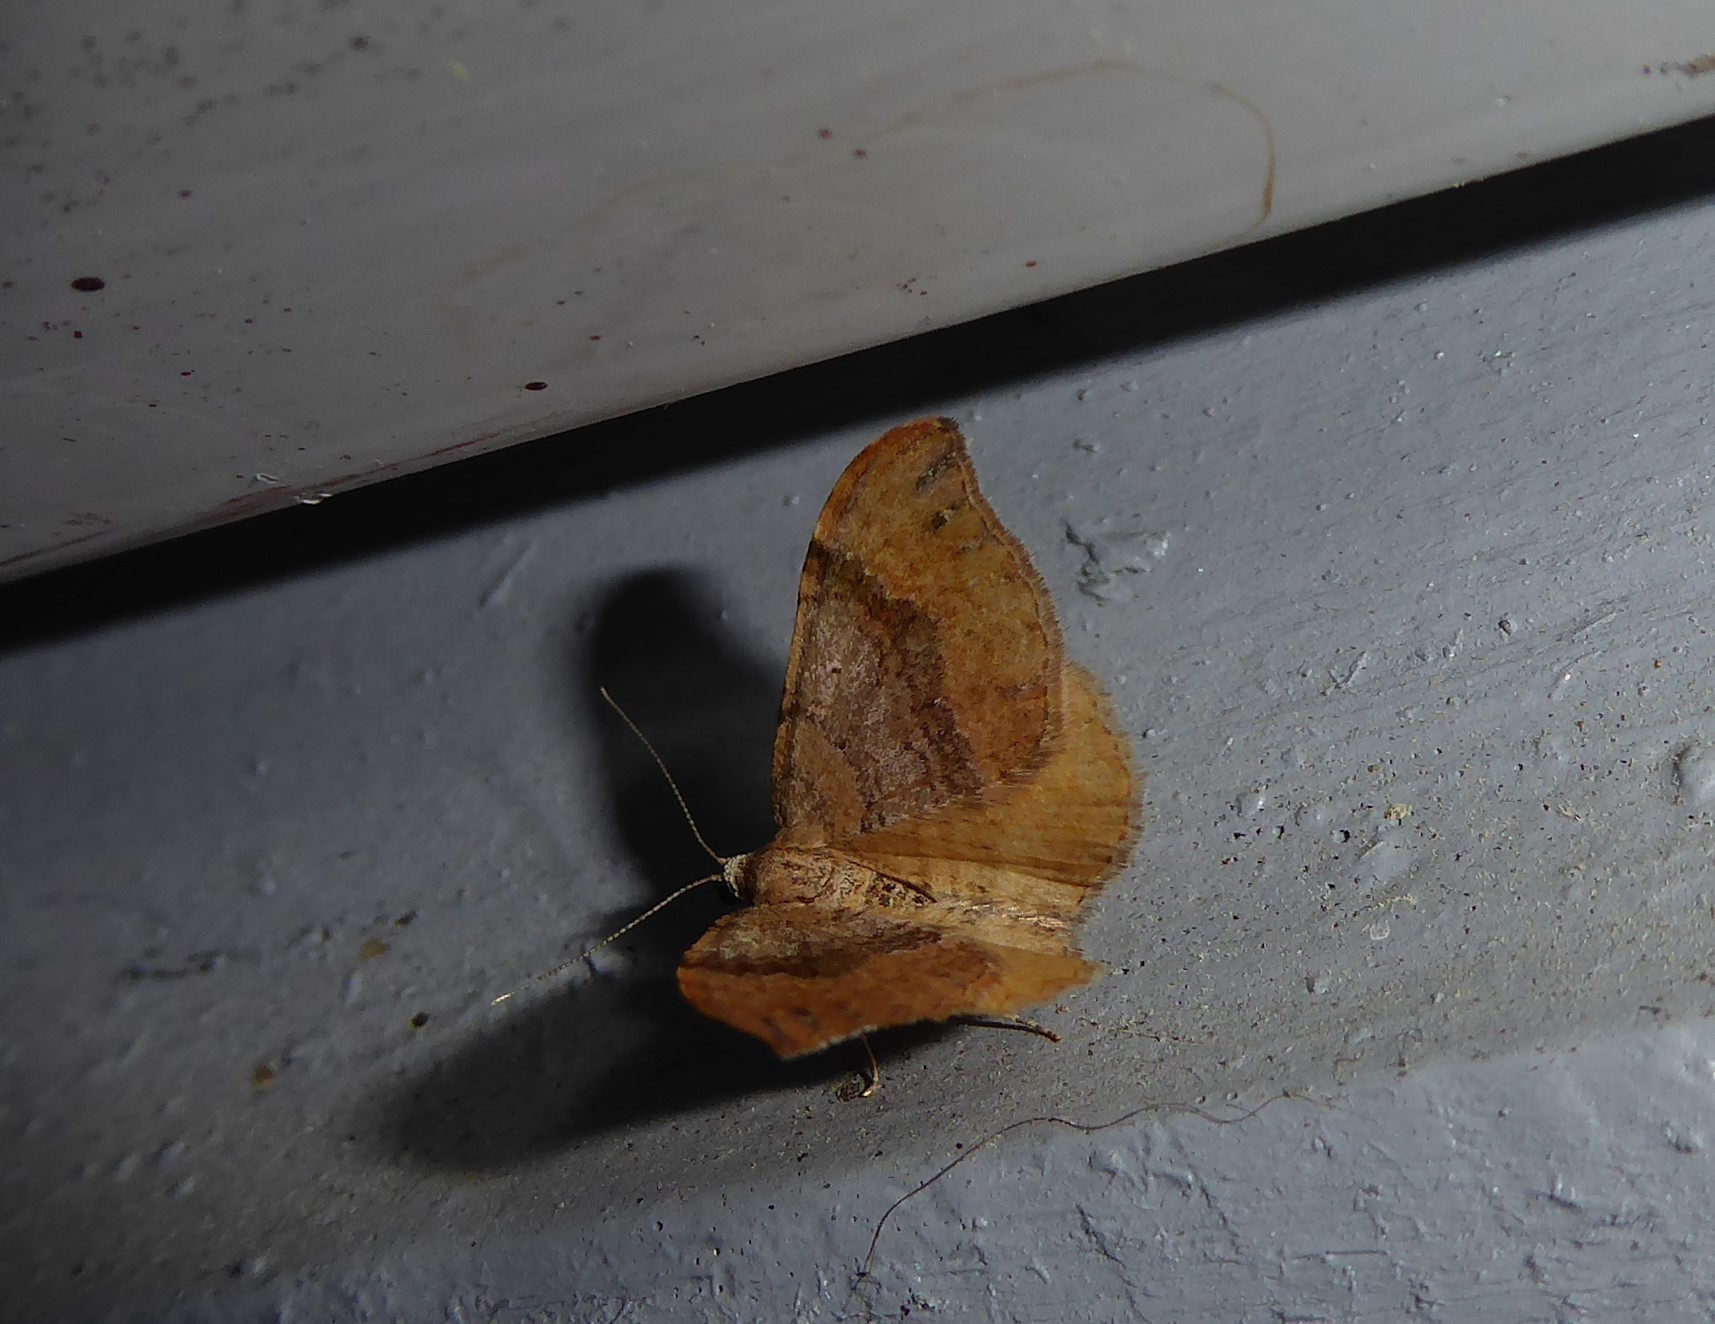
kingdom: Animalia
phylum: Arthropoda
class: Insecta
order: Lepidoptera
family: Geometridae
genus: Homodotis
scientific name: Homodotis megaspilata
